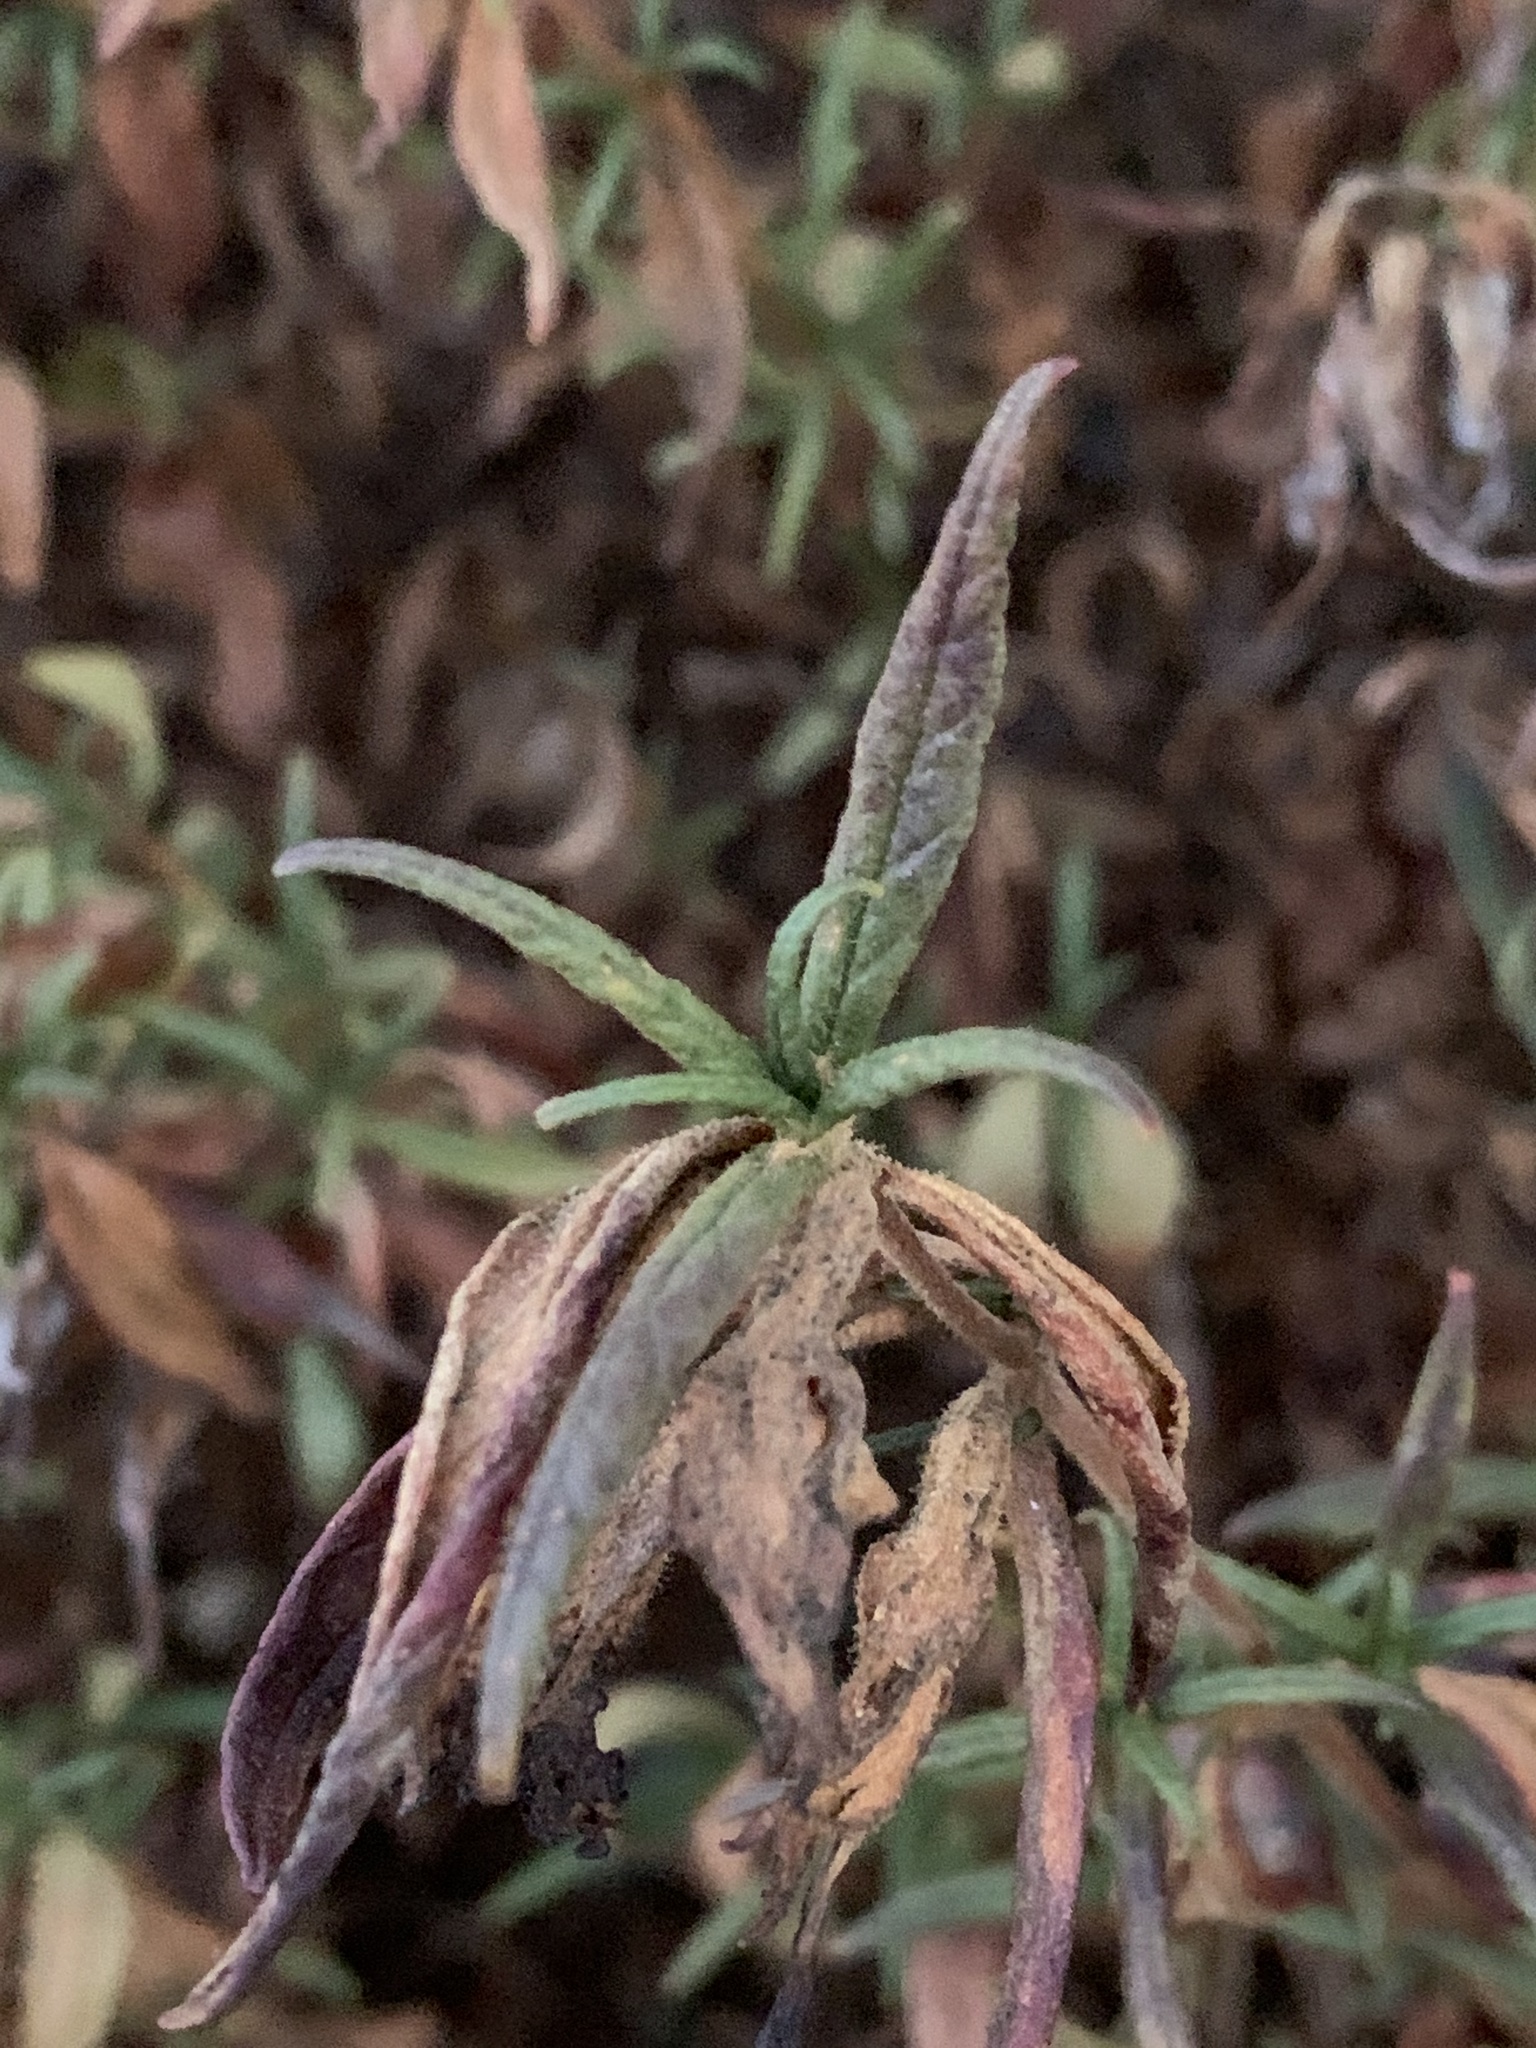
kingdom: Plantae
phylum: Tracheophyta
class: Magnoliopsida
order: Lamiales
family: Phrymaceae
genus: Diplacus
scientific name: Diplacus longiflorus
